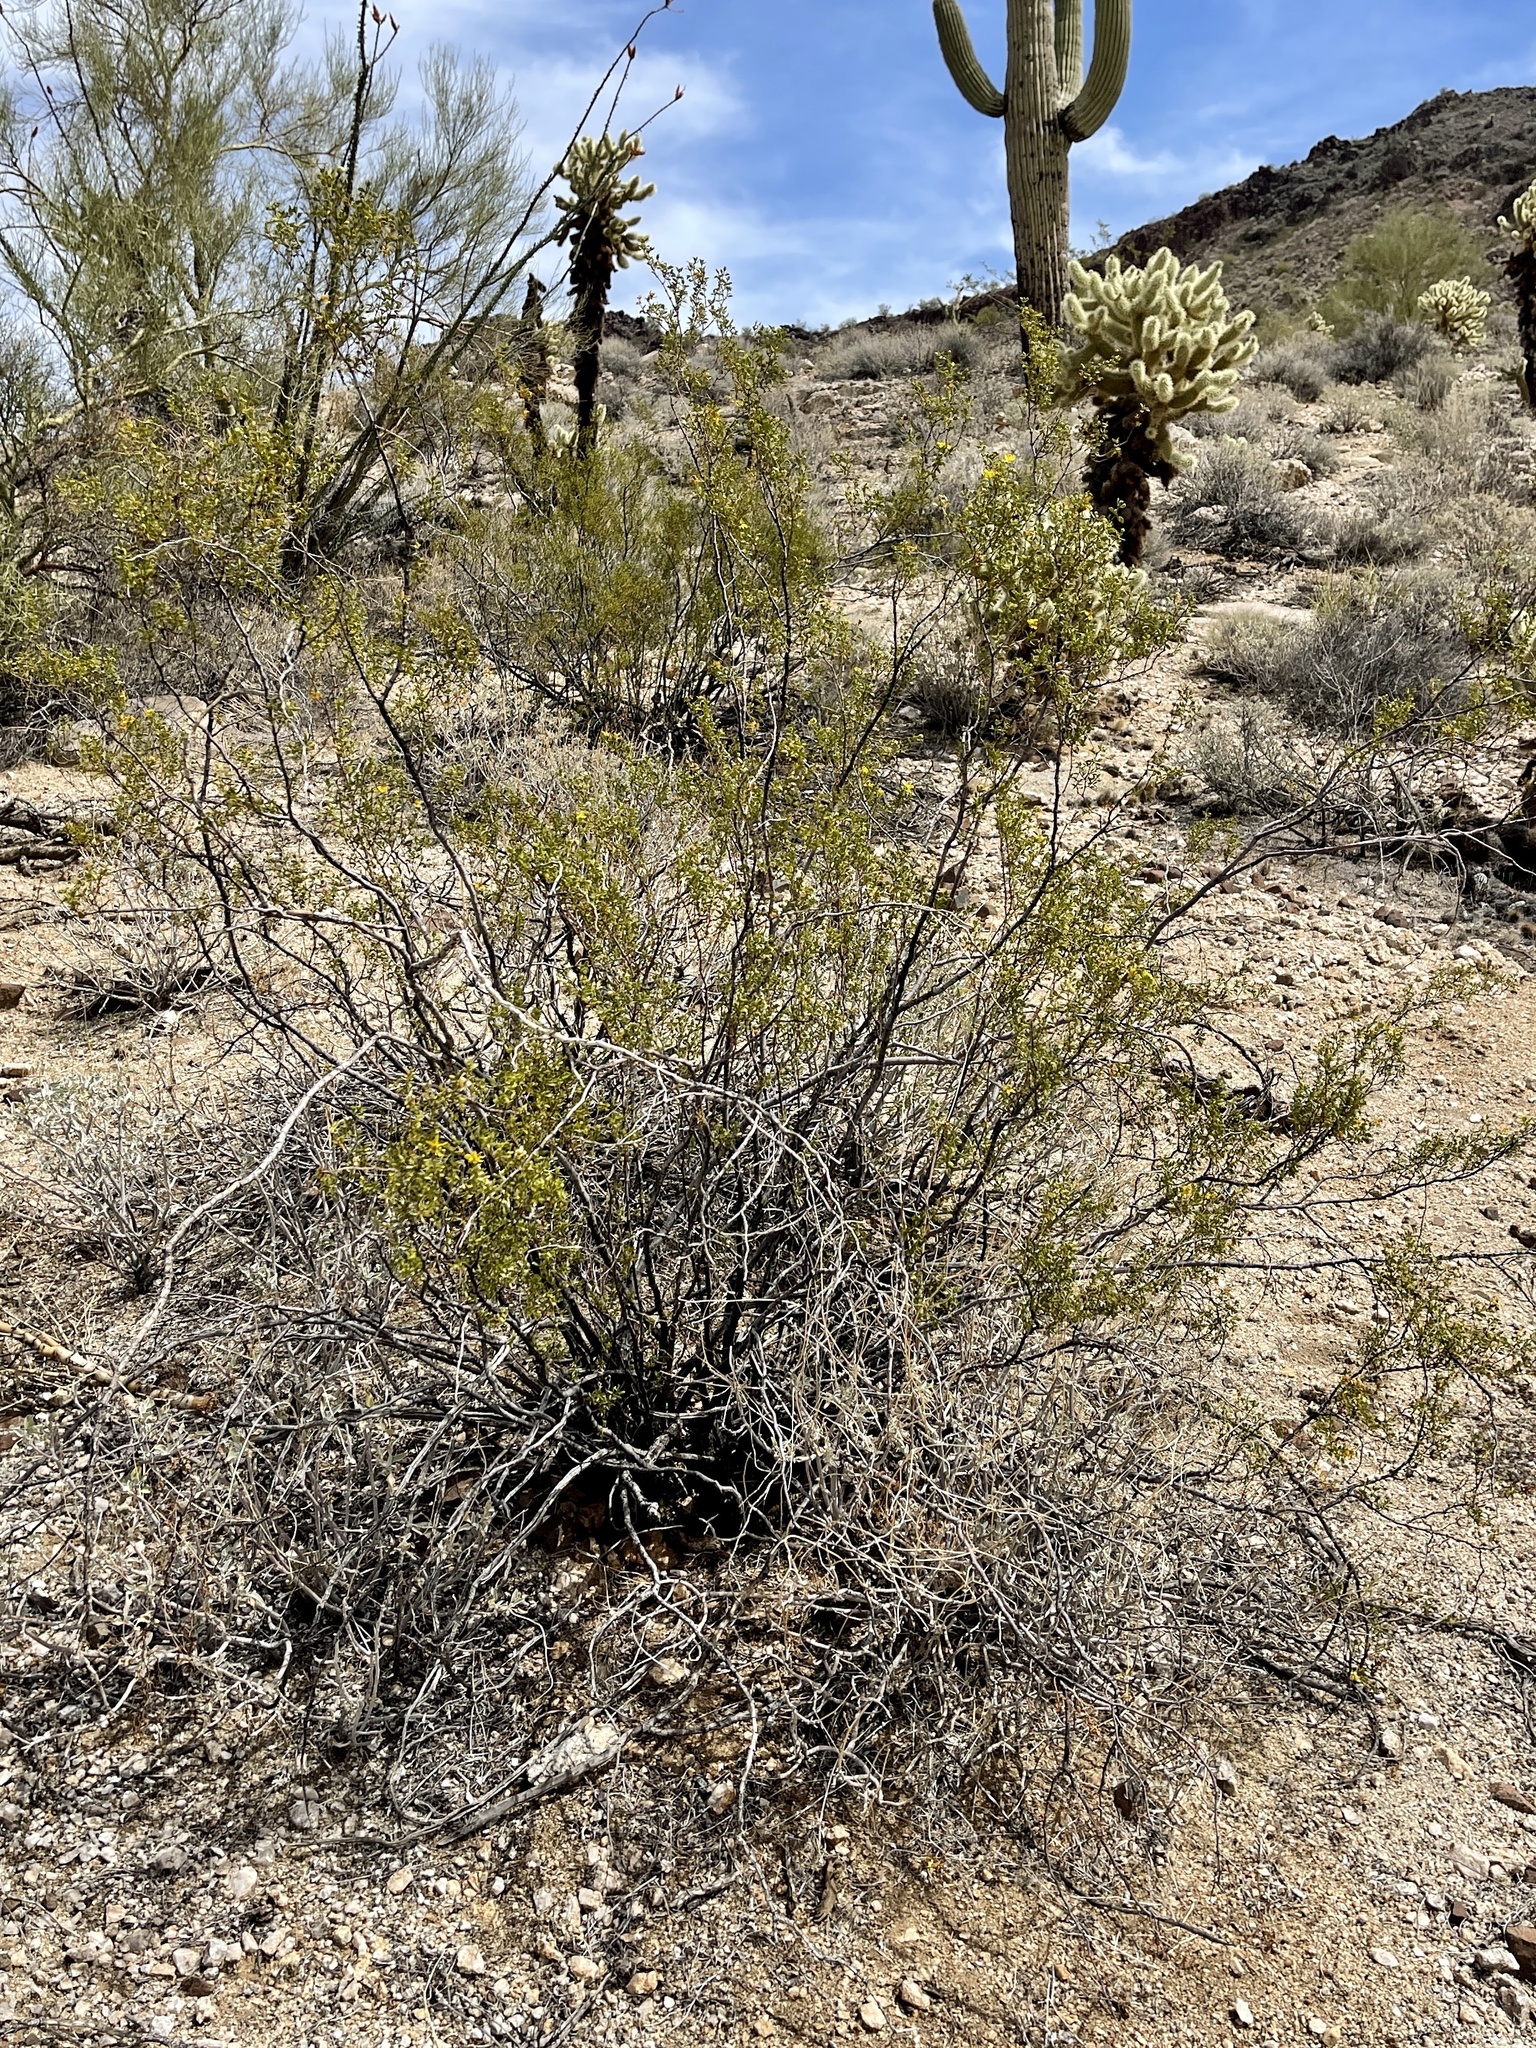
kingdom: Plantae
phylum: Tracheophyta
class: Magnoliopsida
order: Zygophyllales
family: Zygophyllaceae
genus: Larrea
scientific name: Larrea tridentata
